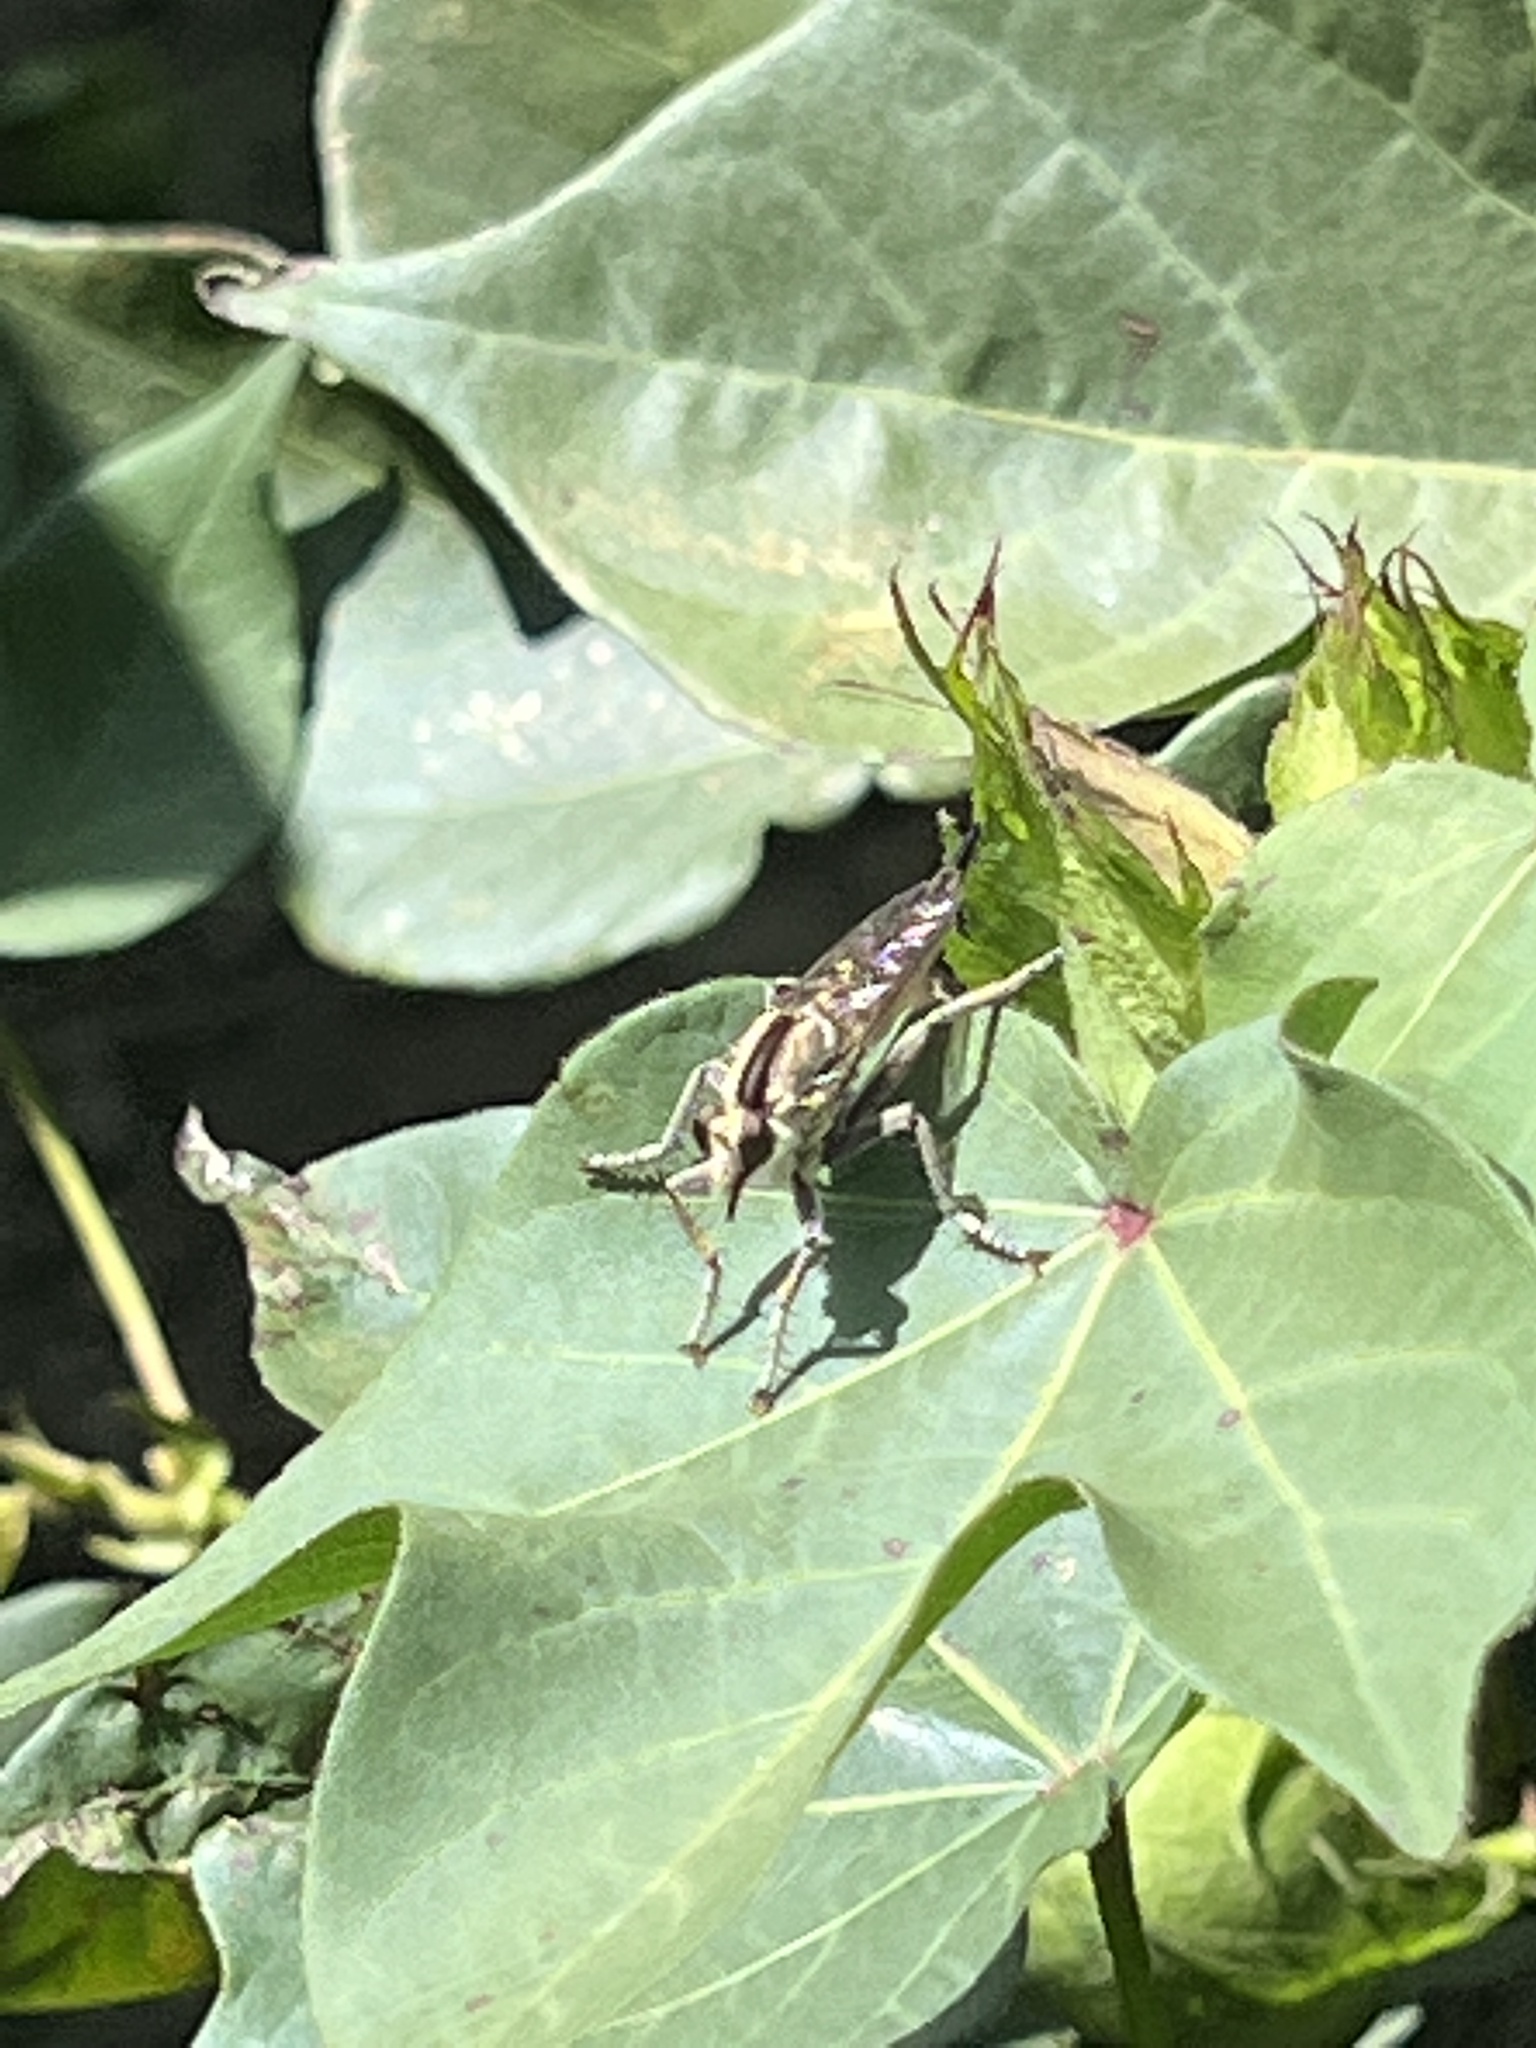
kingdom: Animalia
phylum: Arthropoda
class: Insecta
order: Diptera
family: Asilidae
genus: Triorla
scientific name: Triorla interrupta
